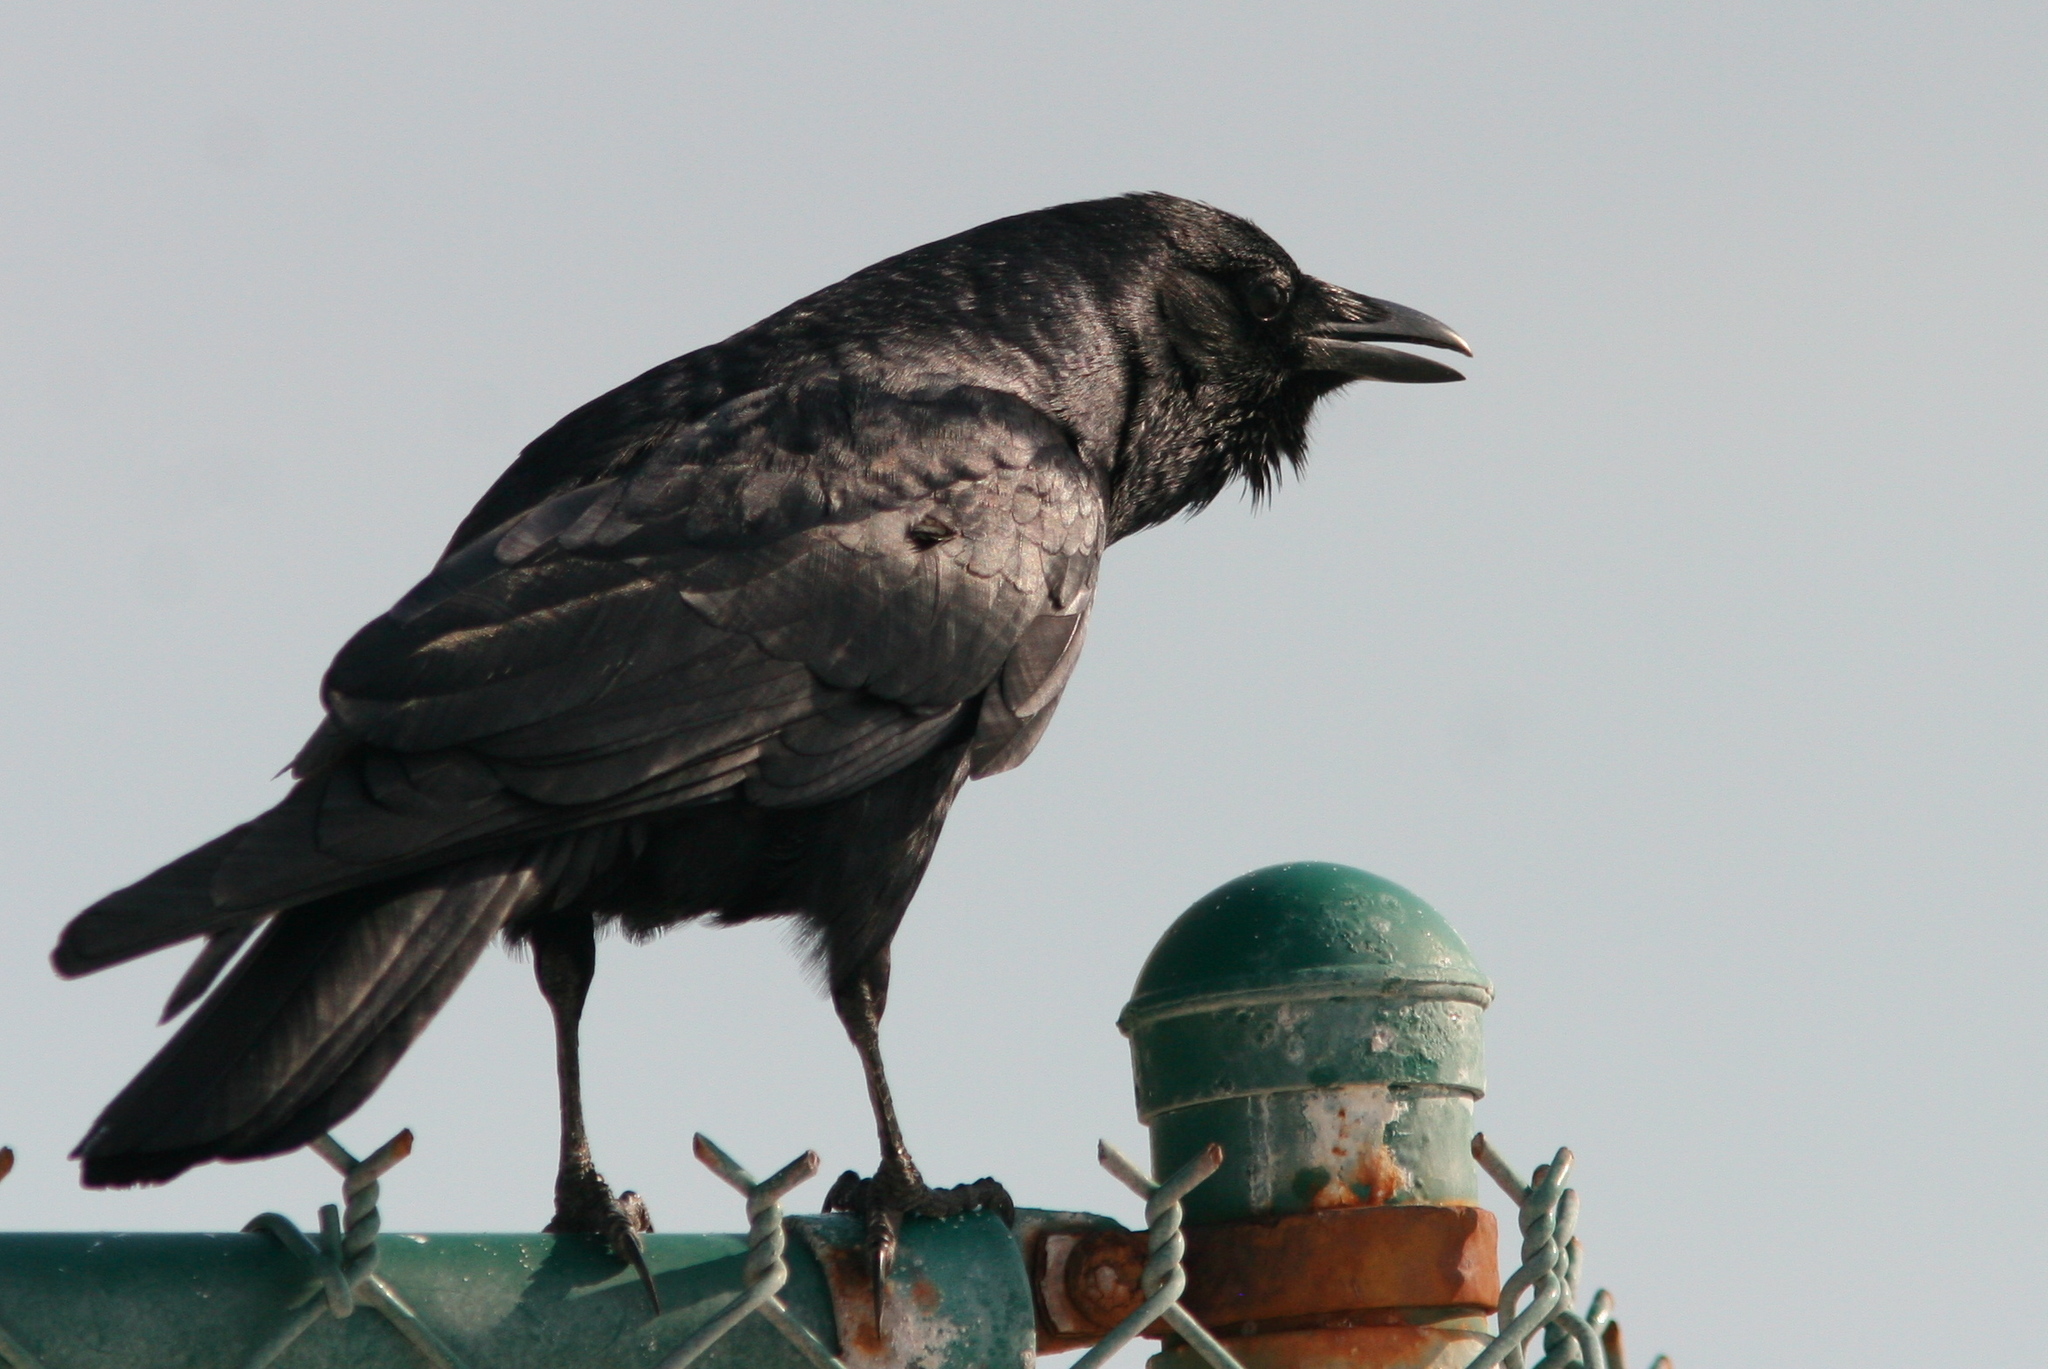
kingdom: Animalia
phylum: Chordata
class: Aves
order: Passeriformes
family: Corvidae
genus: Corvus
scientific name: Corvus ossifragus
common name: Fish crow
